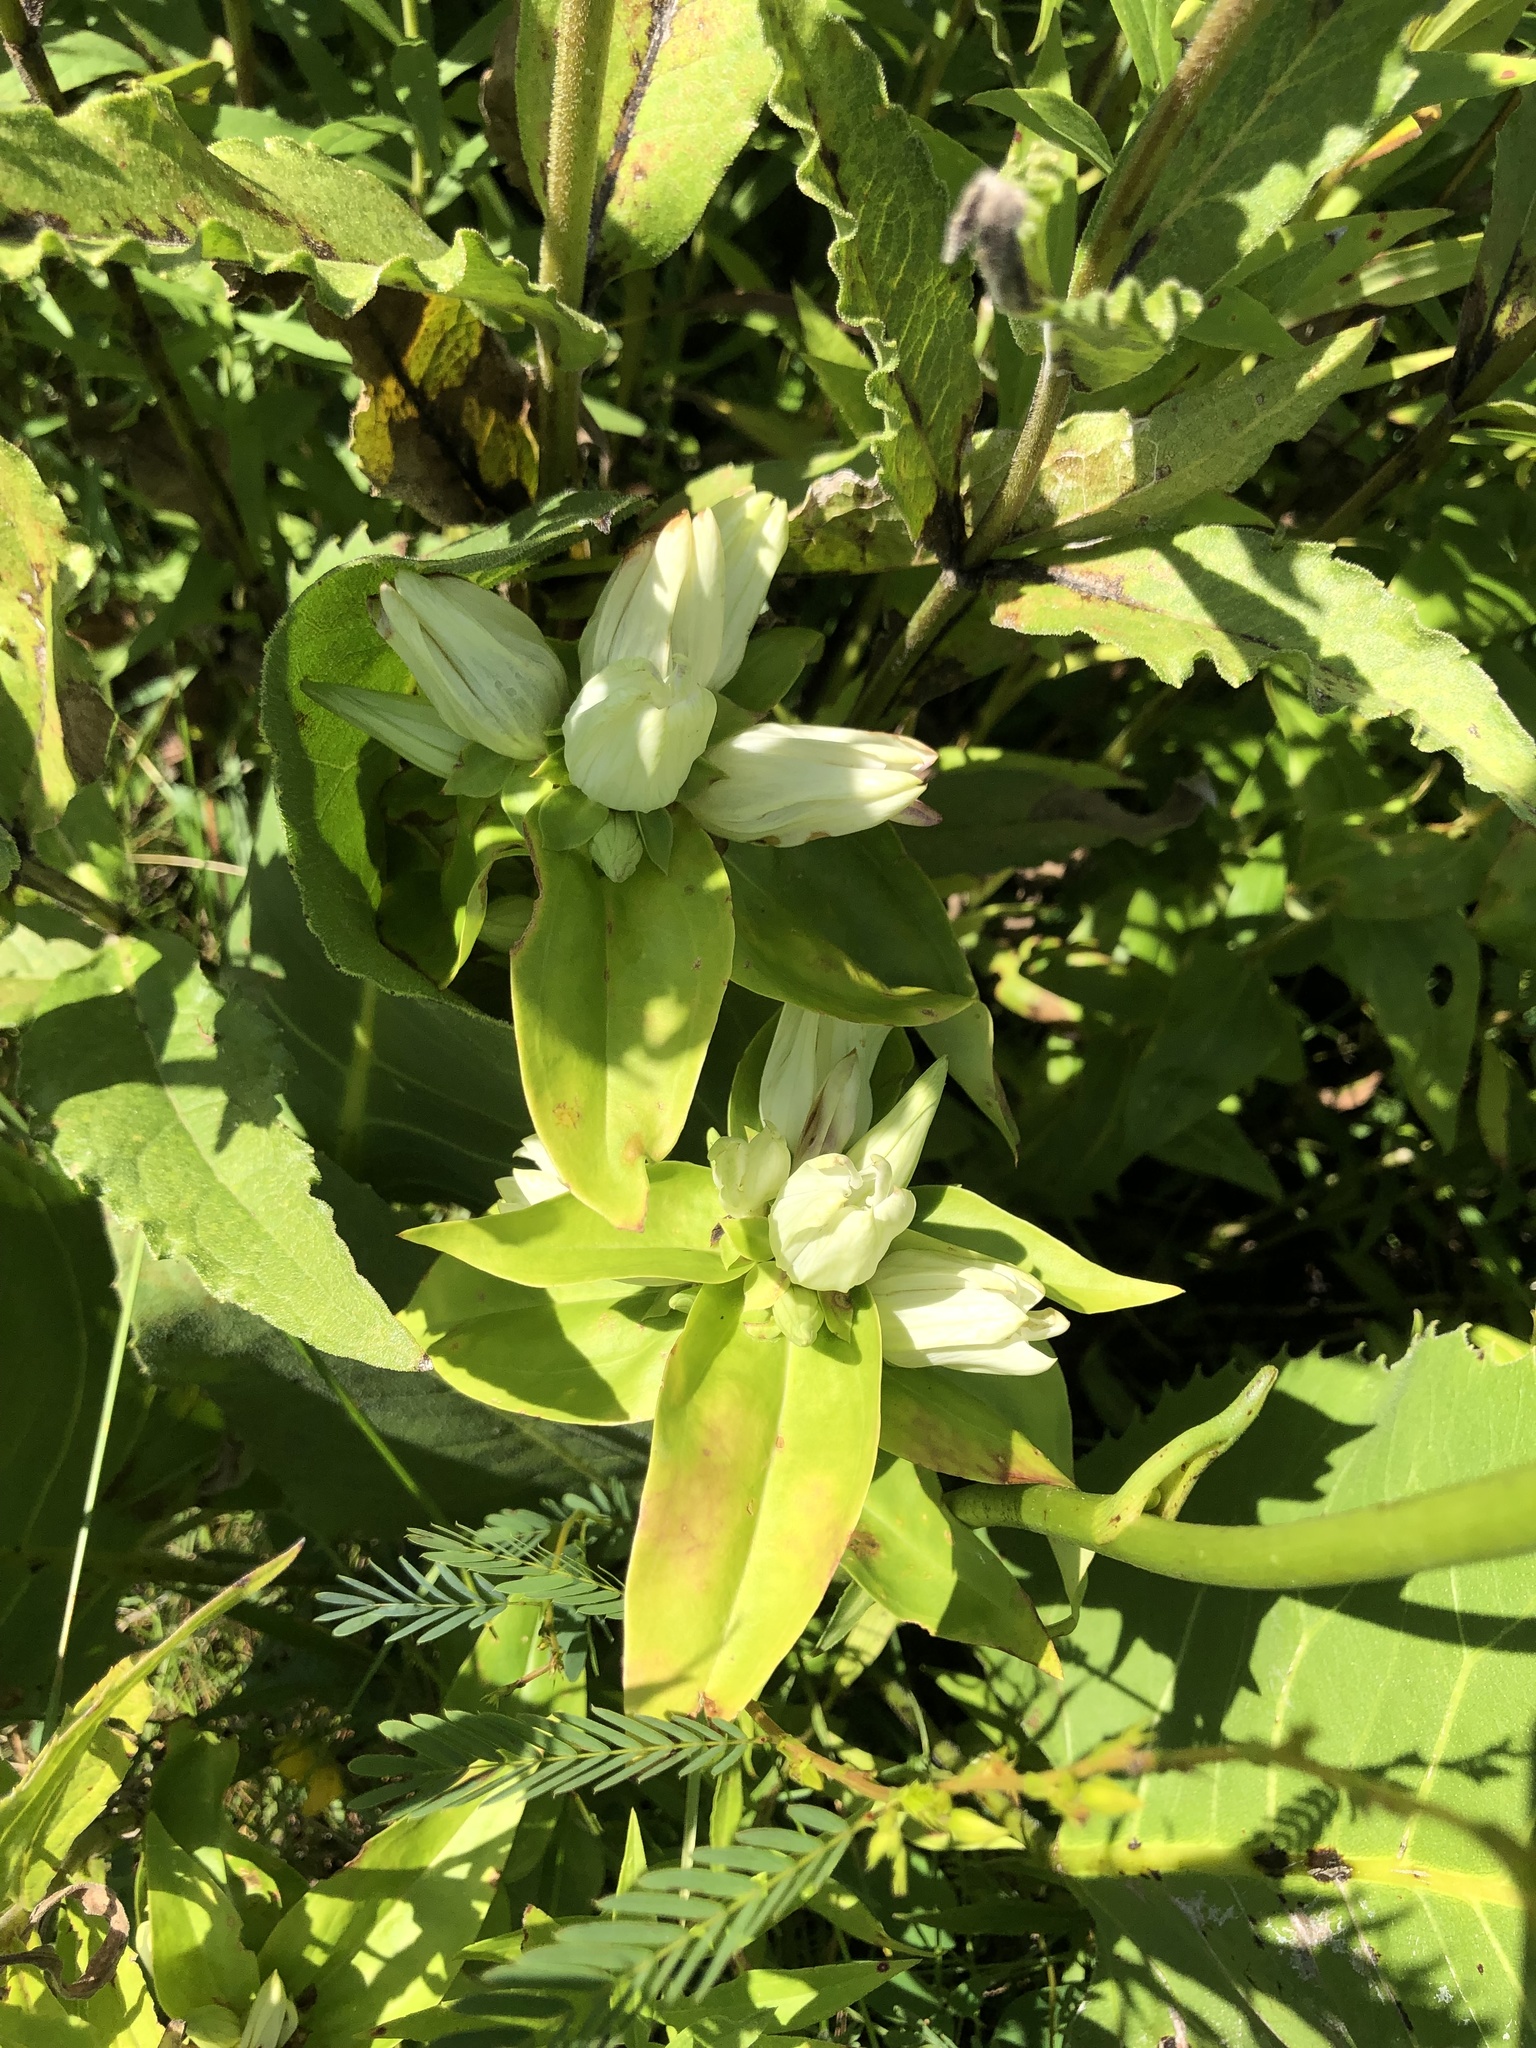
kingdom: Plantae
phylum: Tracheophyta
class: Magnoliopsida
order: Gentianales
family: Gentianaceae
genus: Gentiana
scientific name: Gentiana alba
